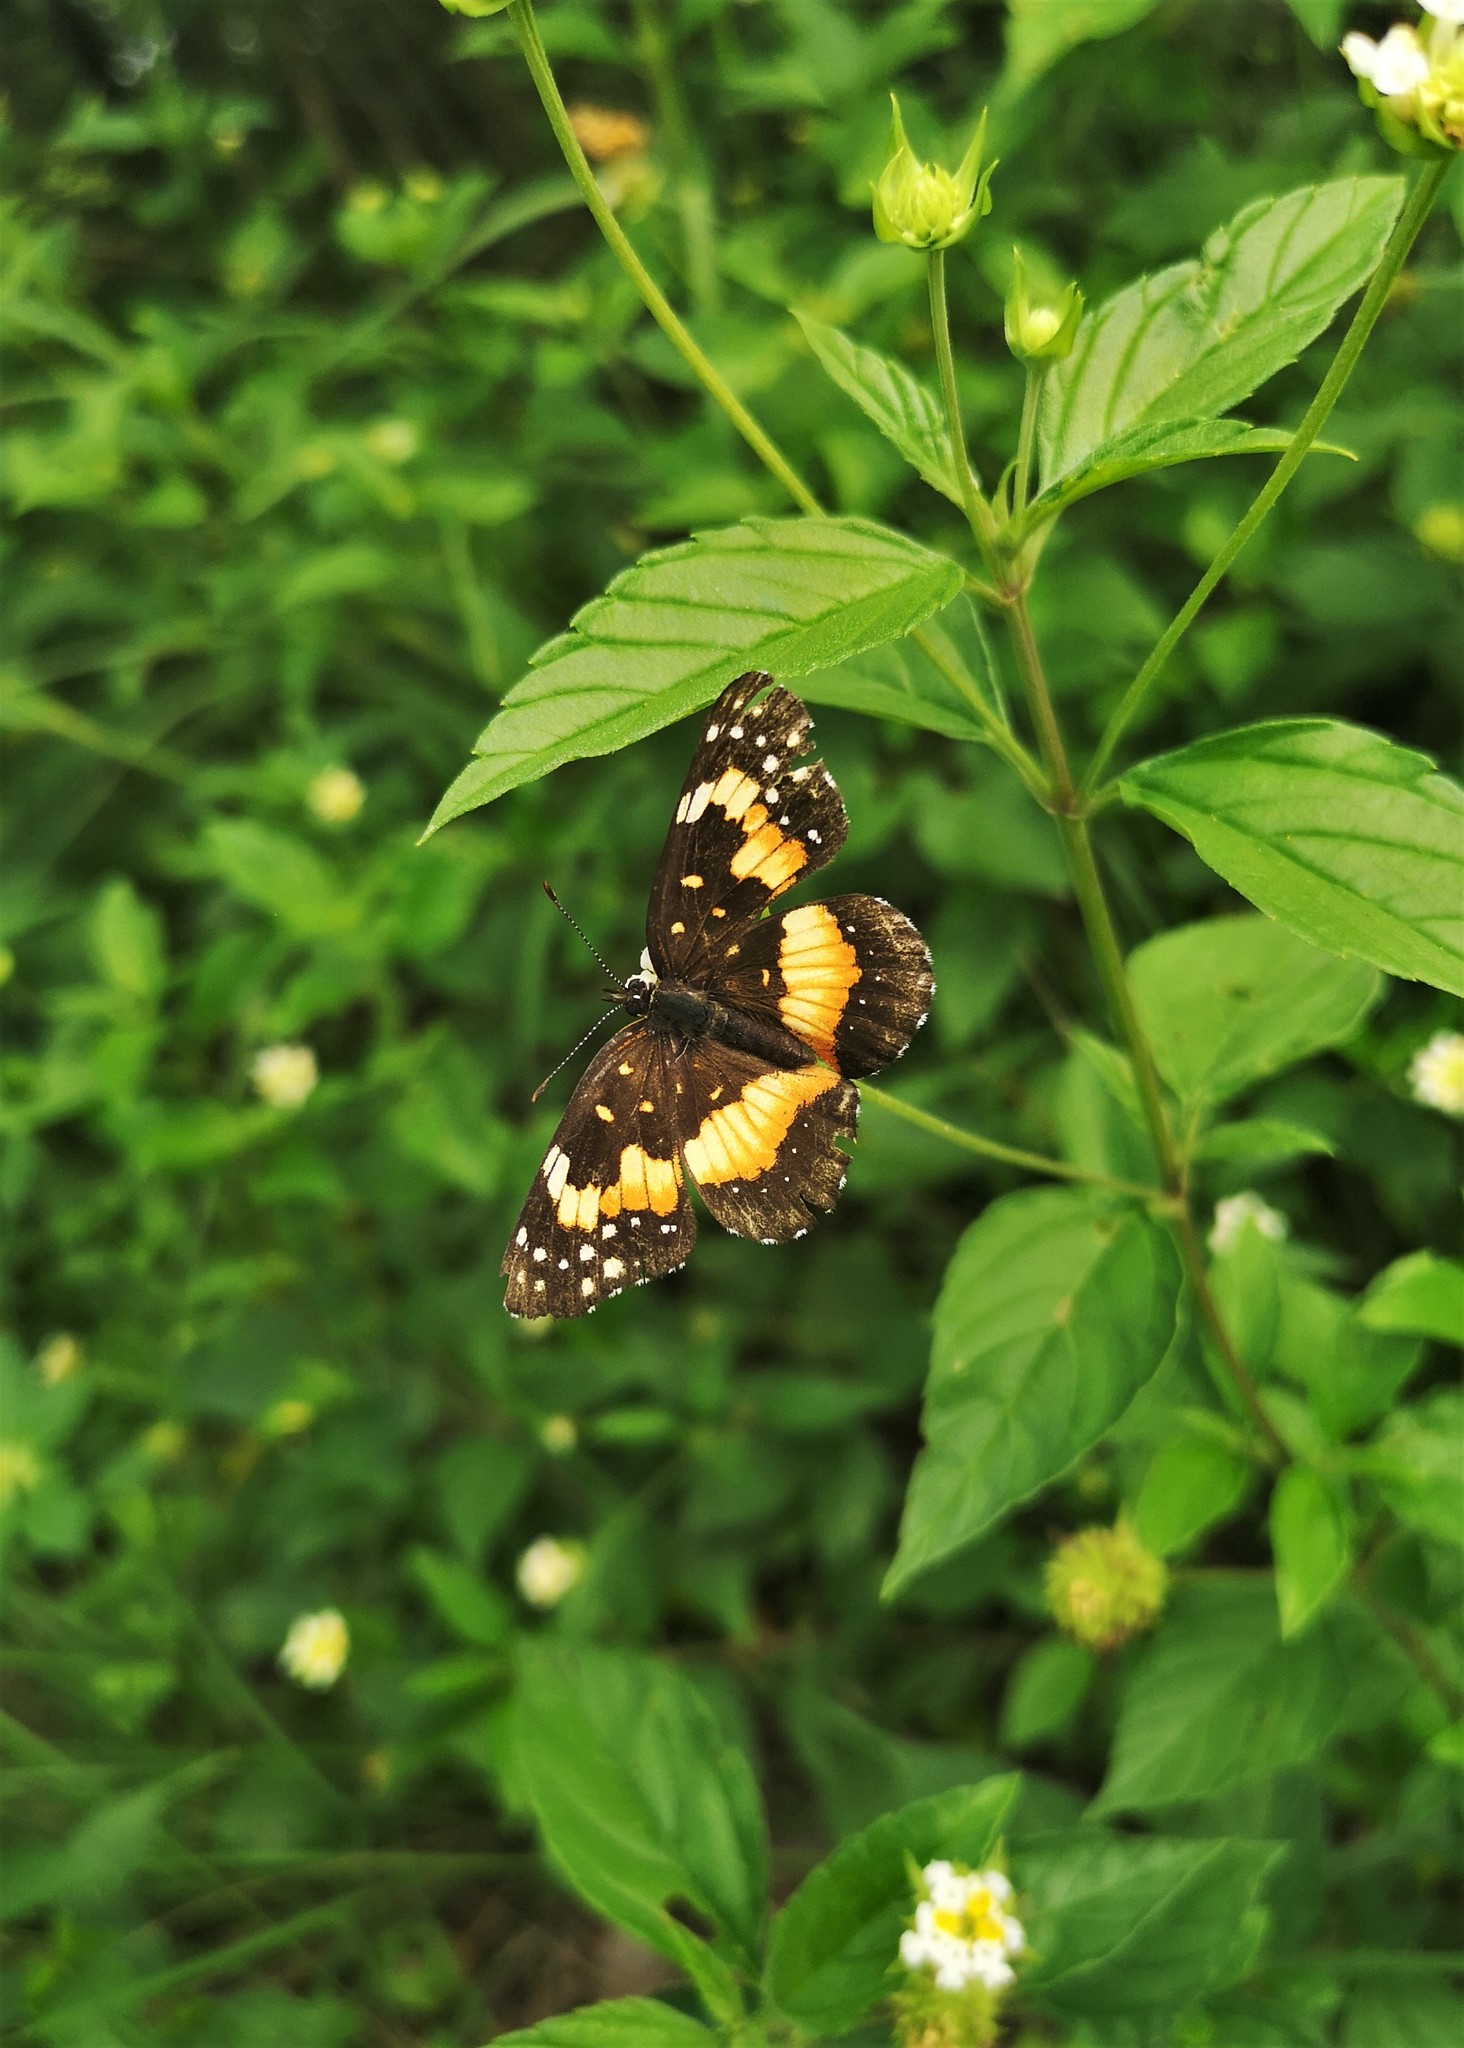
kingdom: Animalia
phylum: Arthropoda
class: Insecta
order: Lepidoptera
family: Nymphalidae
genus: Chlosyne
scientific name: Chlosyne lacinia
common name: Bordered patch
